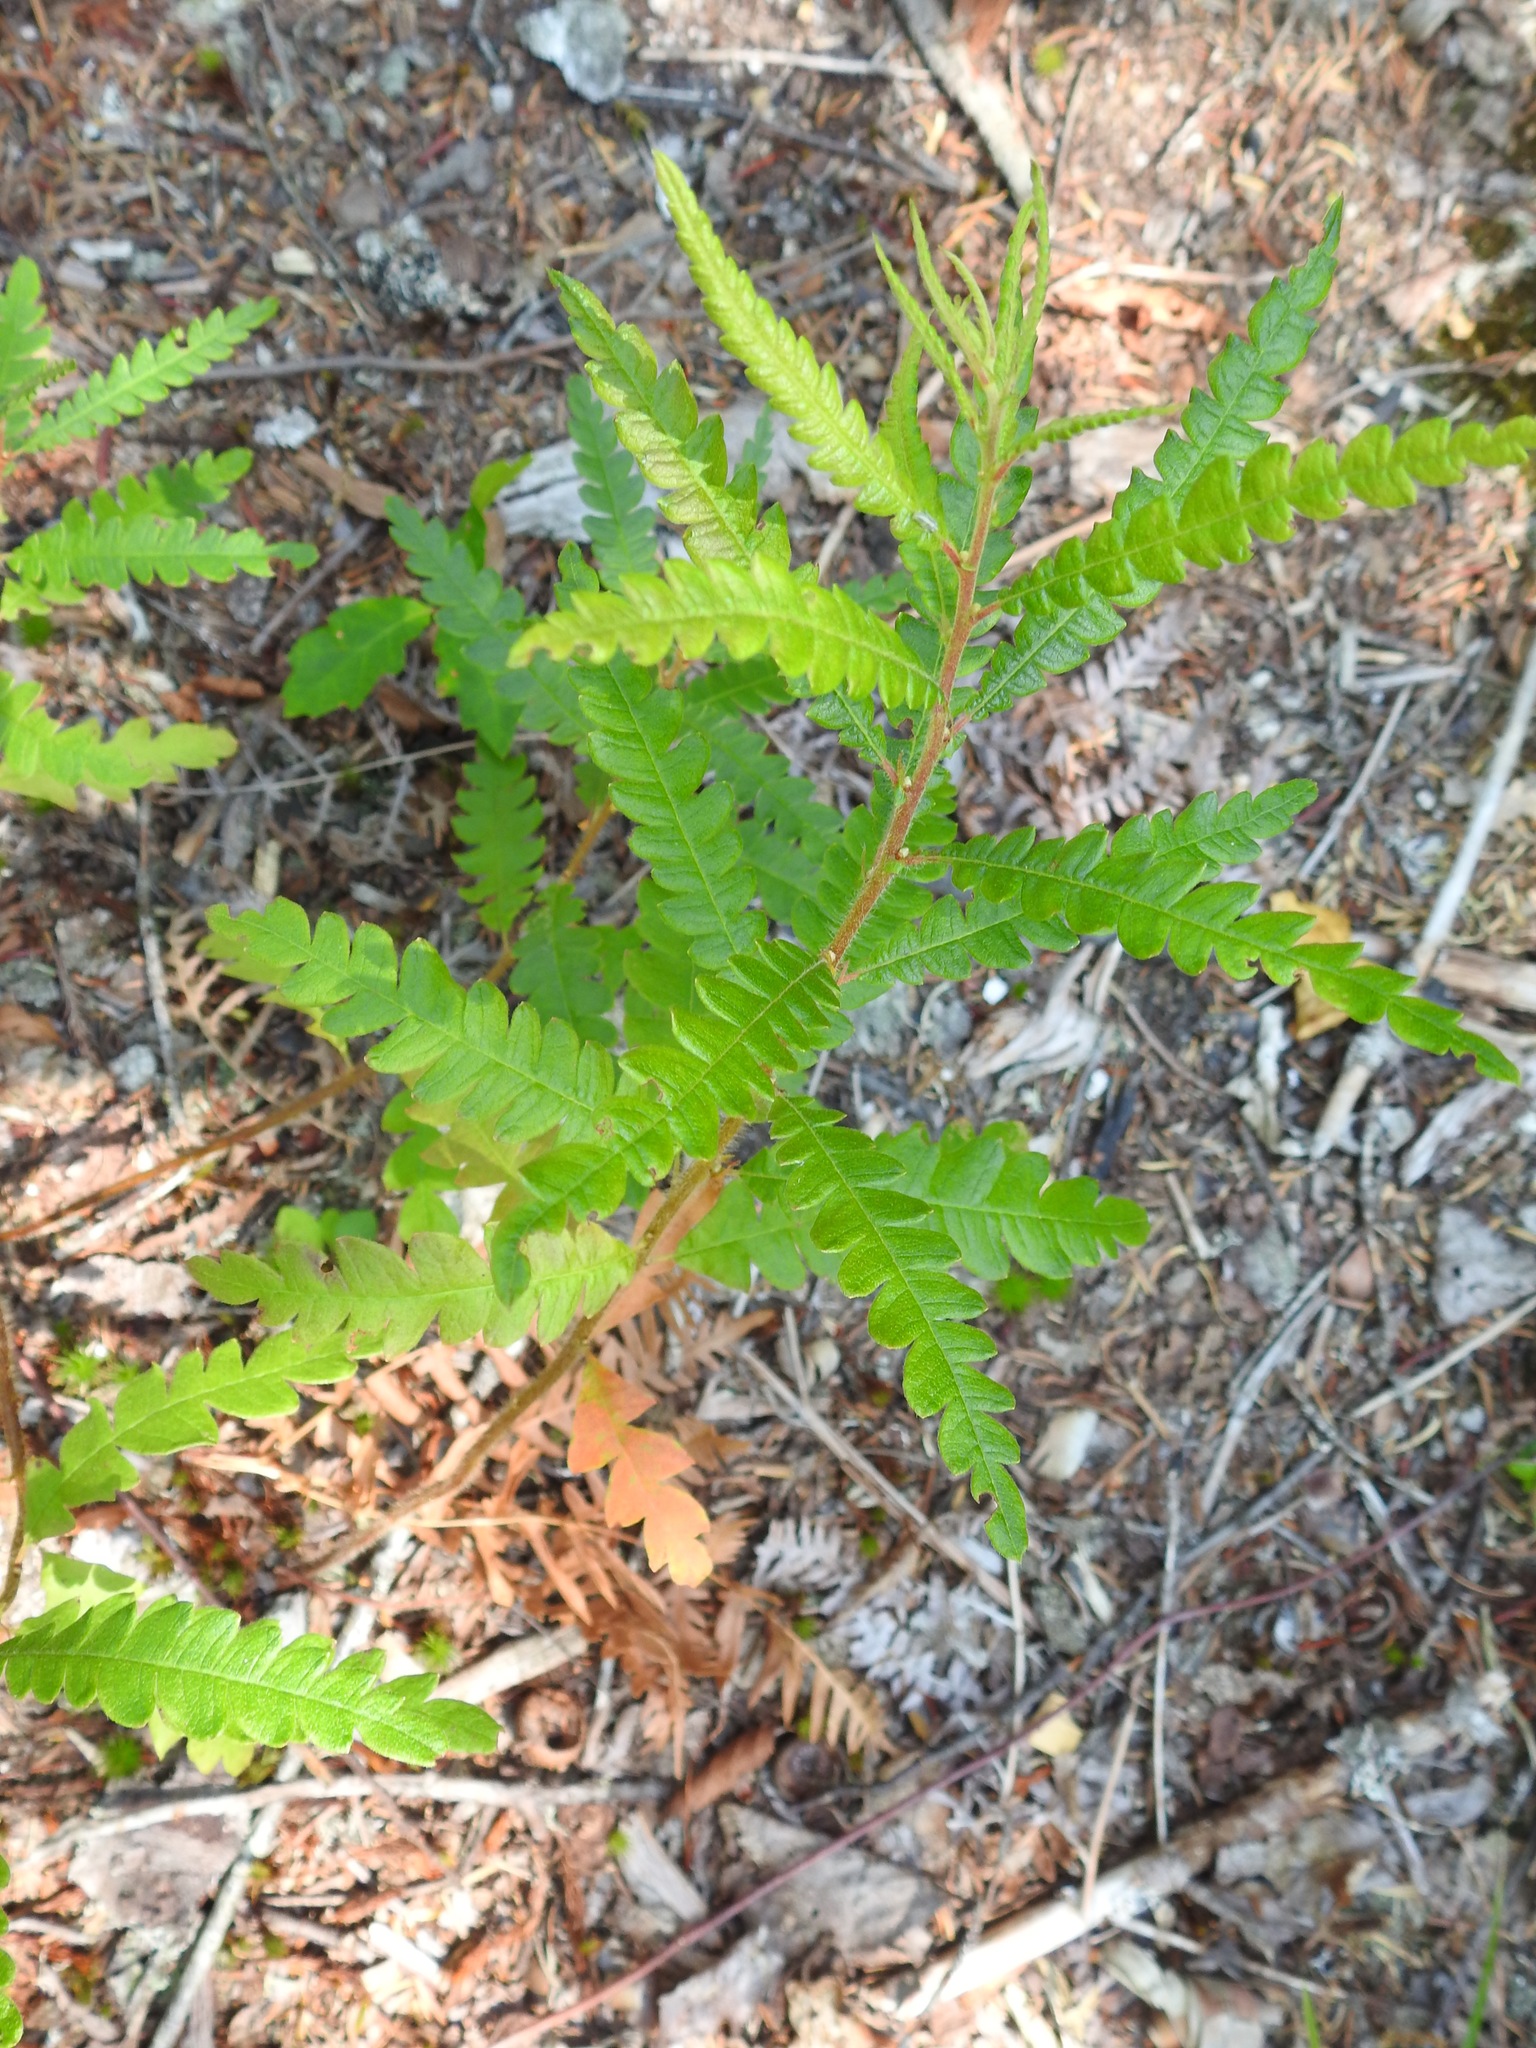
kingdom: Plantae
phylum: Tracheophyta
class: Magnoliopsida
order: Fagales
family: Myricaceae
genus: Comptonia
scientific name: Comptonia peregrina
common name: Sweet-fern
